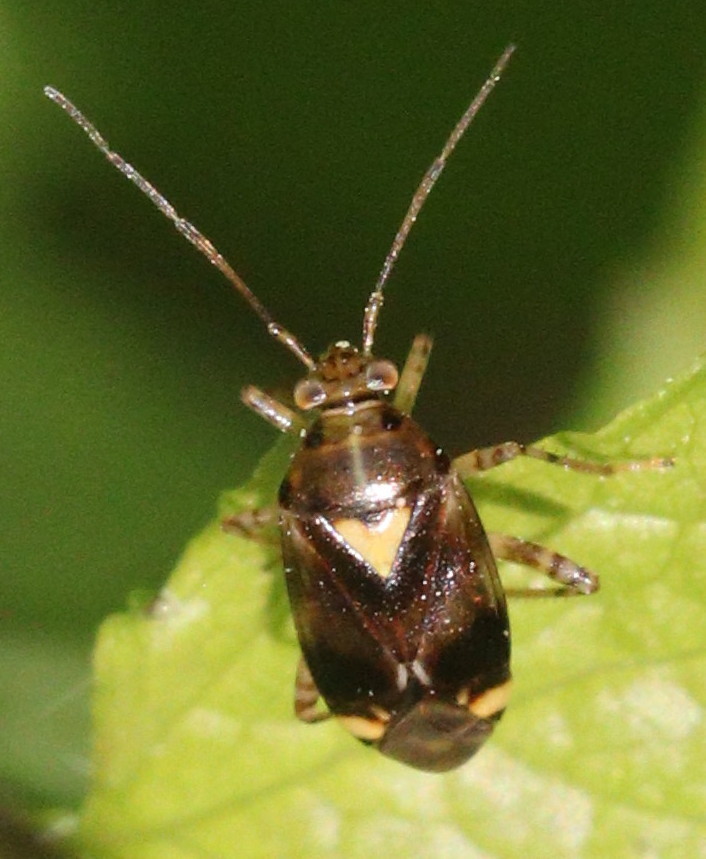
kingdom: Animalia
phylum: Arthropoda
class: Insecta
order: Hemiptera
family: Miridae
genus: Liocoris
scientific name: Liocoris tripustulatus
